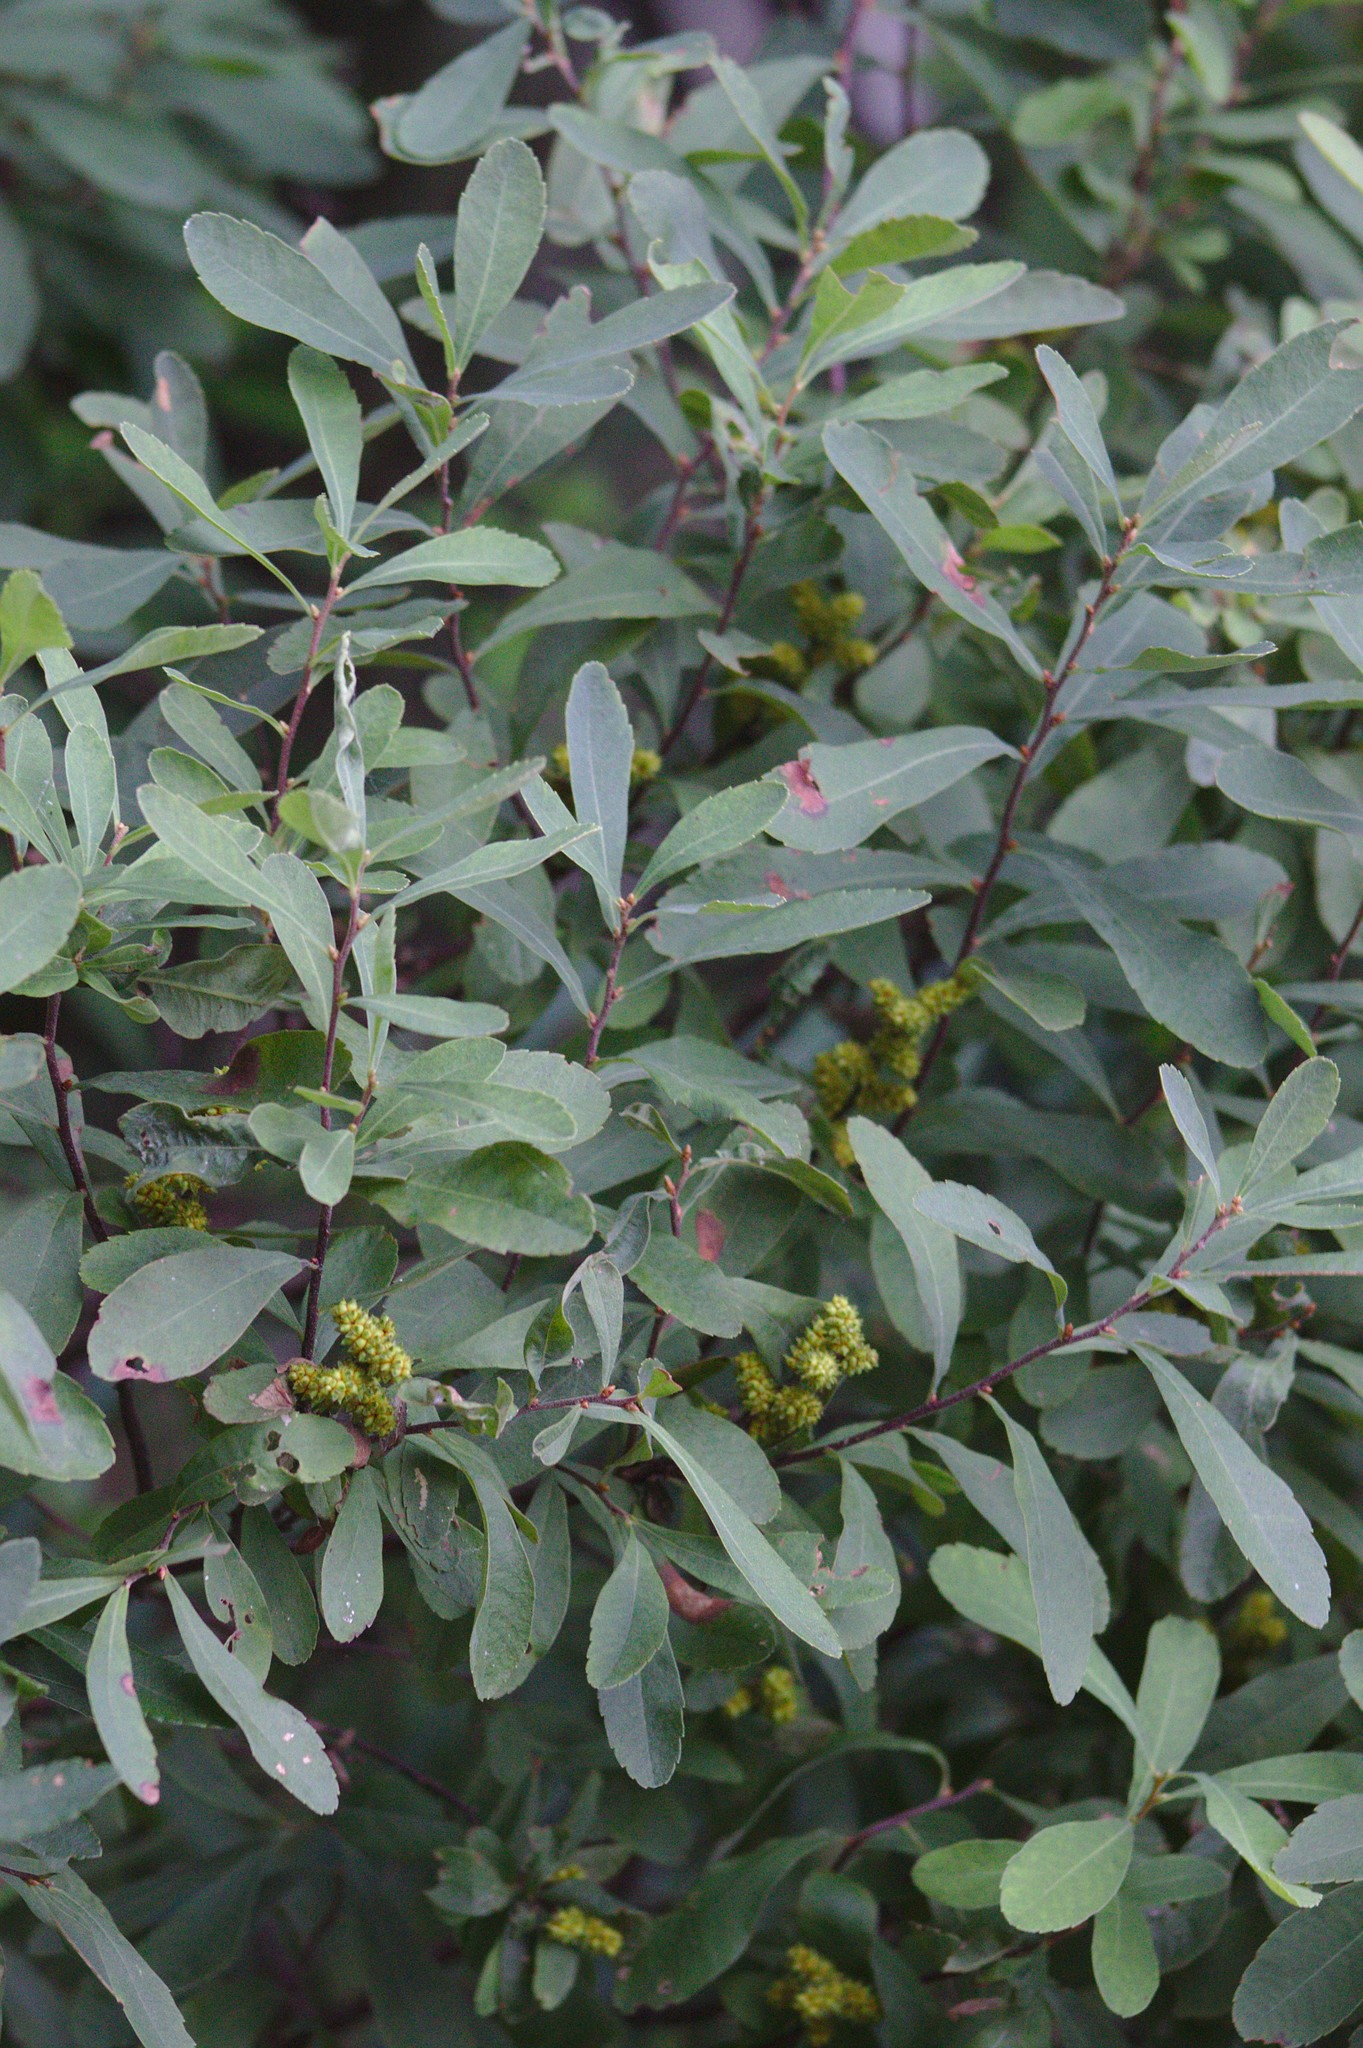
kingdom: Plantae
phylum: Tracheophyta
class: Magnoliopsida
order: Fagales
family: Myricaceae
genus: Myrica
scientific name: Myrica gale
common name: Sweet gale
